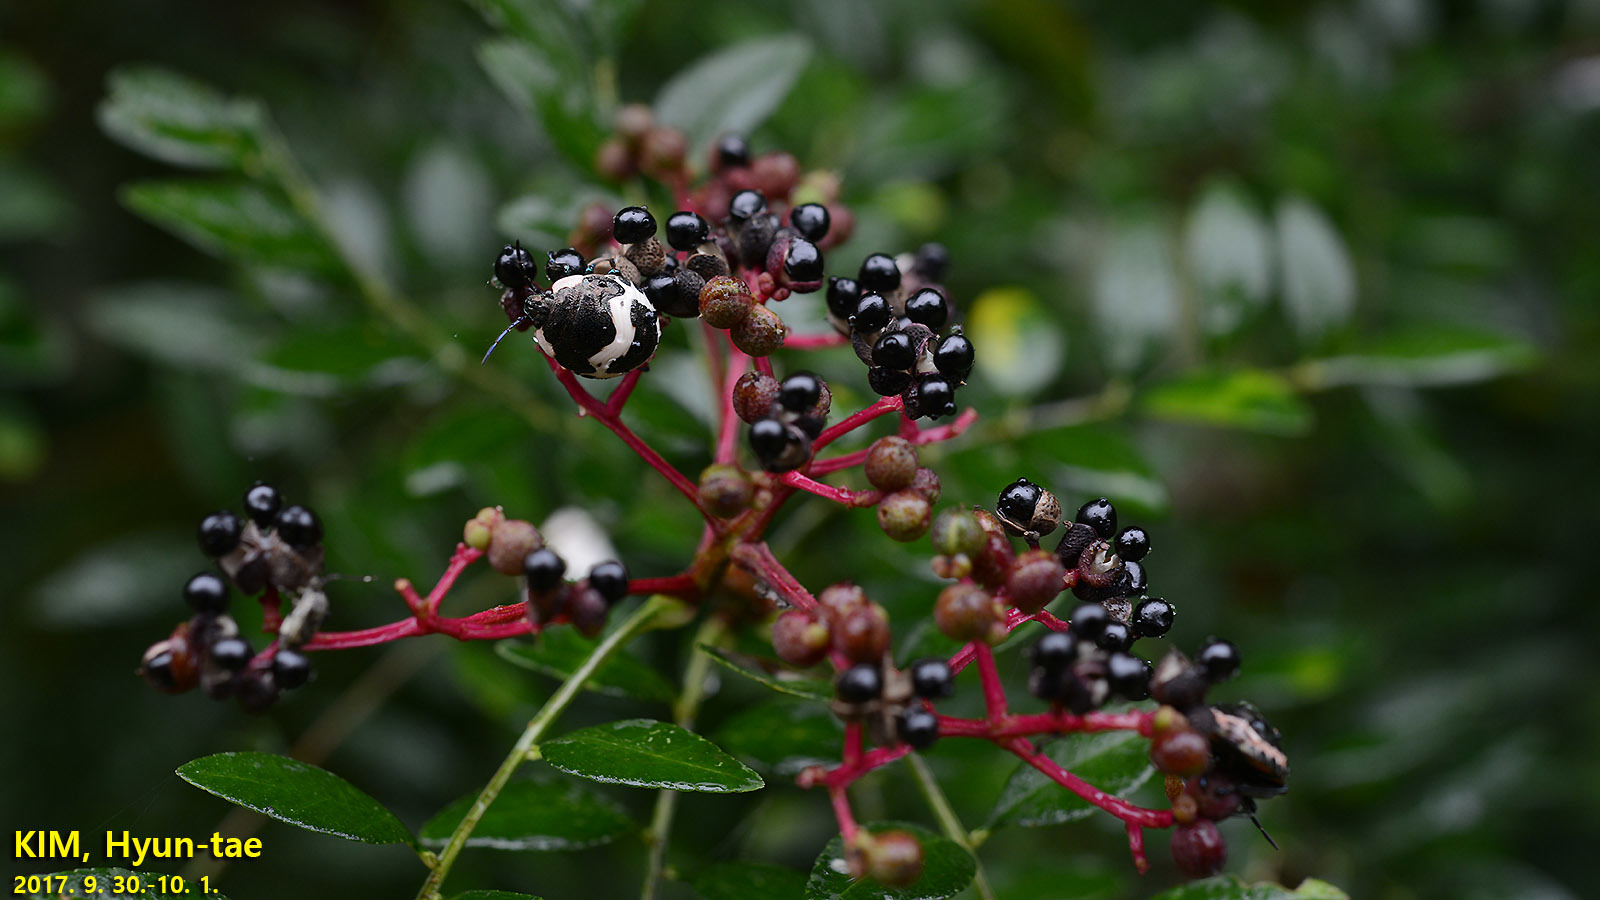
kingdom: Animalia
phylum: Arthropoda
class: Insecta
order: Hemiptera
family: Scutelleridae
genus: Poecilocoris
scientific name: Poecilocoris lewisi
